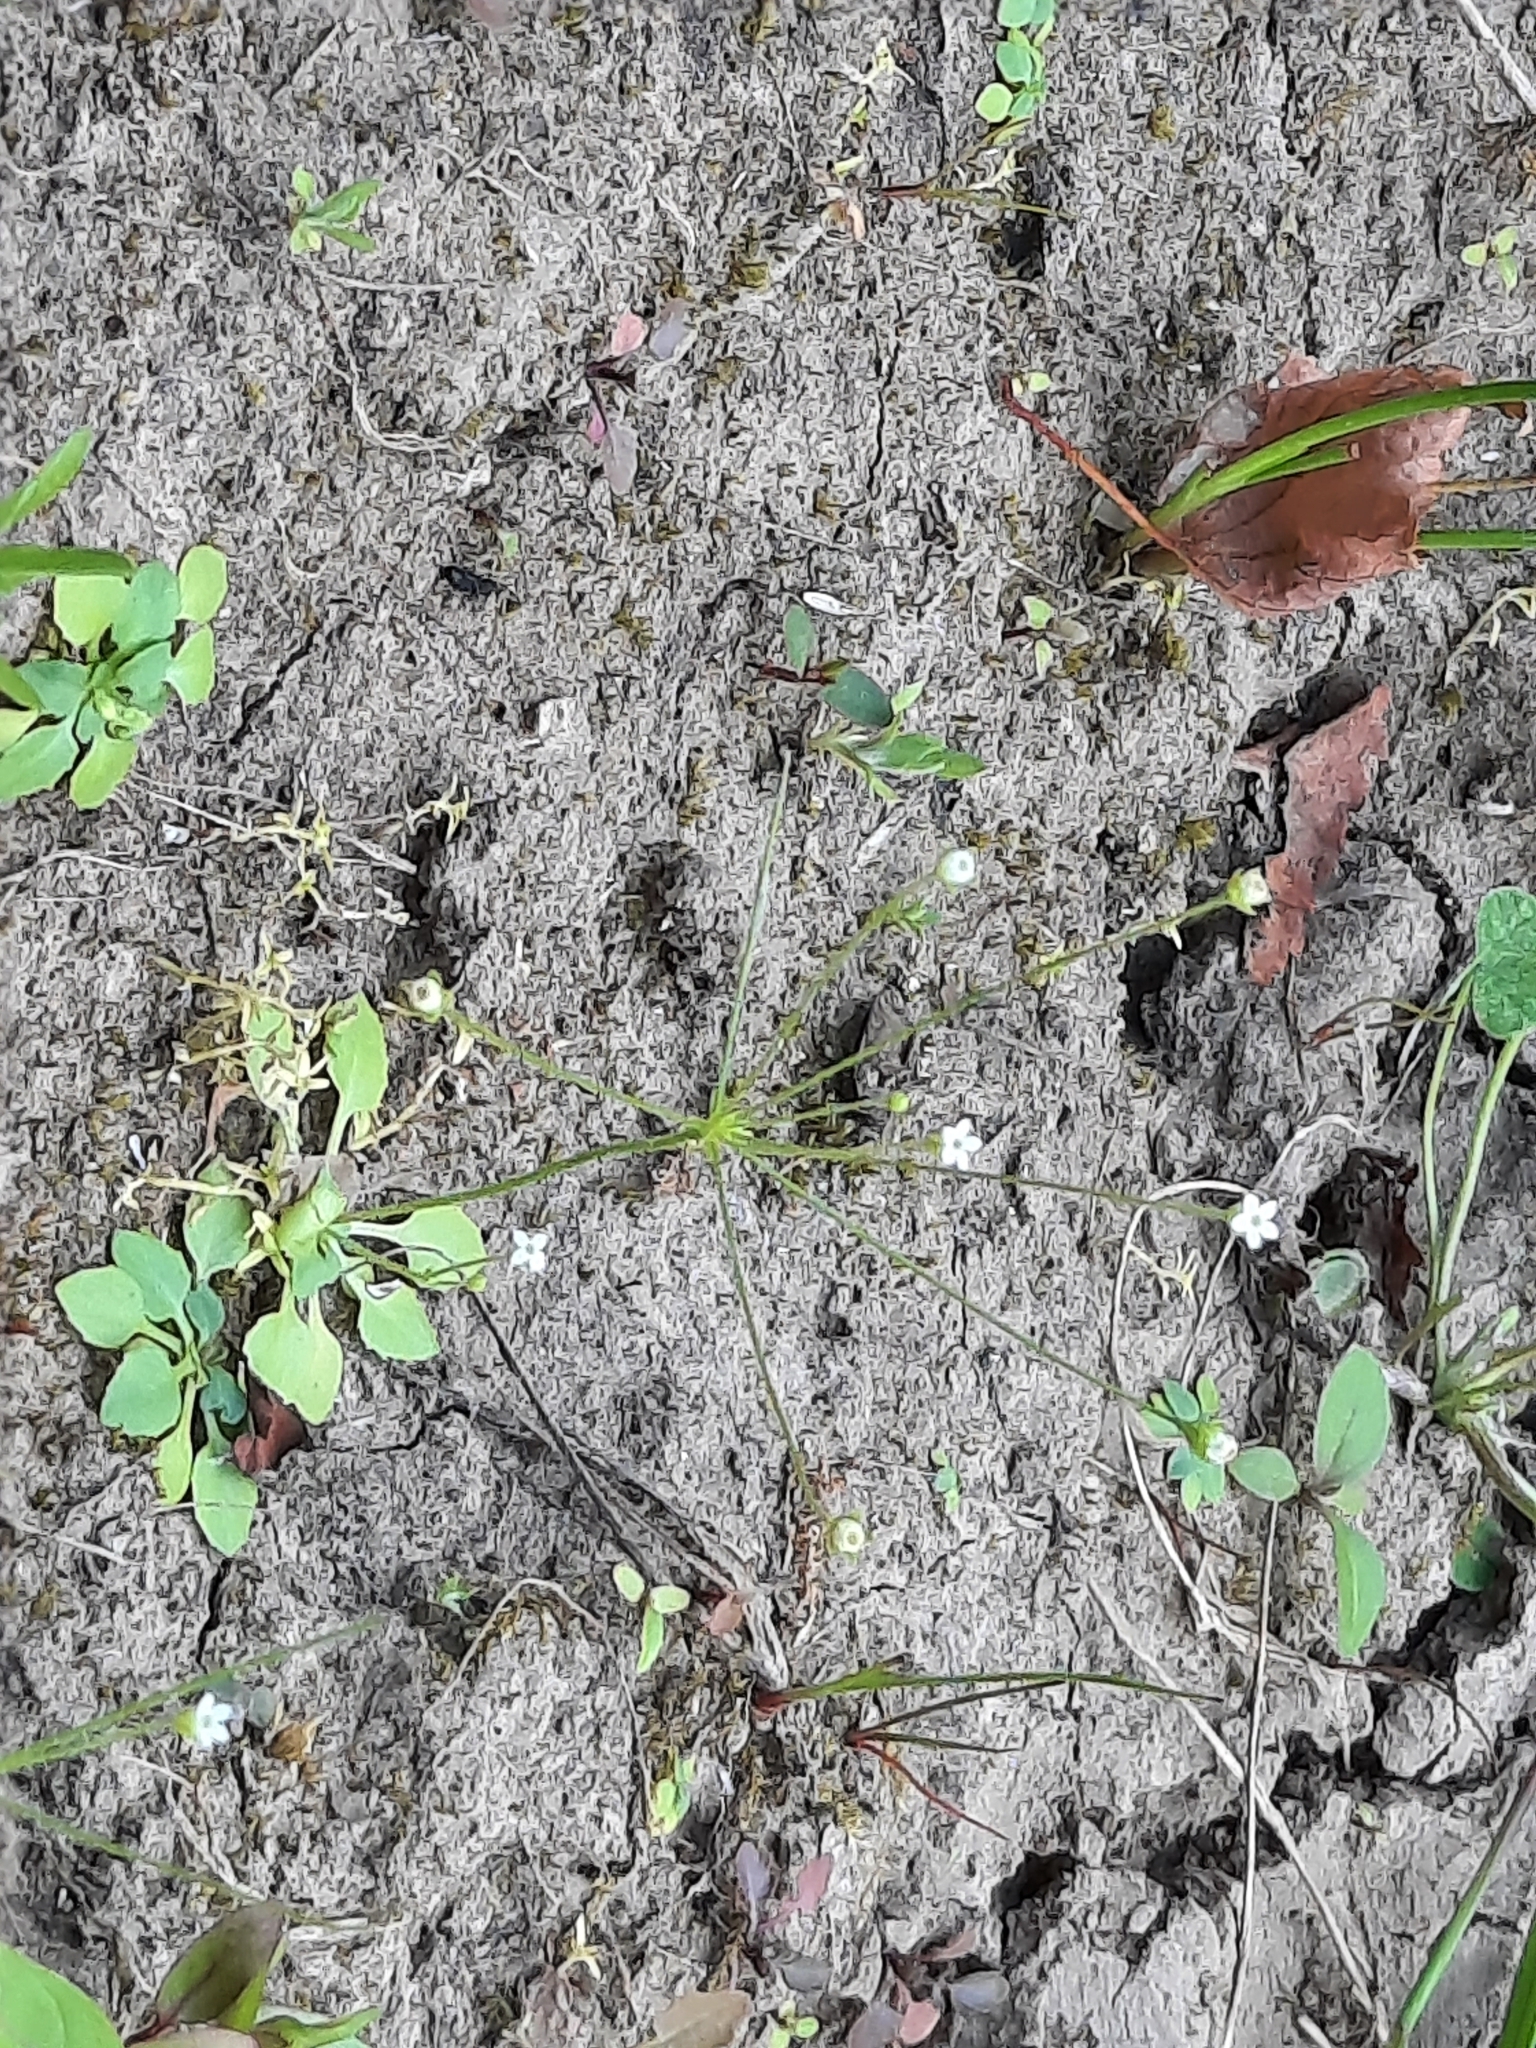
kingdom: Plantae
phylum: Tracheophyta
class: Magnoliopsida
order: Ericales
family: Primulaceae
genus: Androsace
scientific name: Androsace filiformis
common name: Filiform rock jasmine
